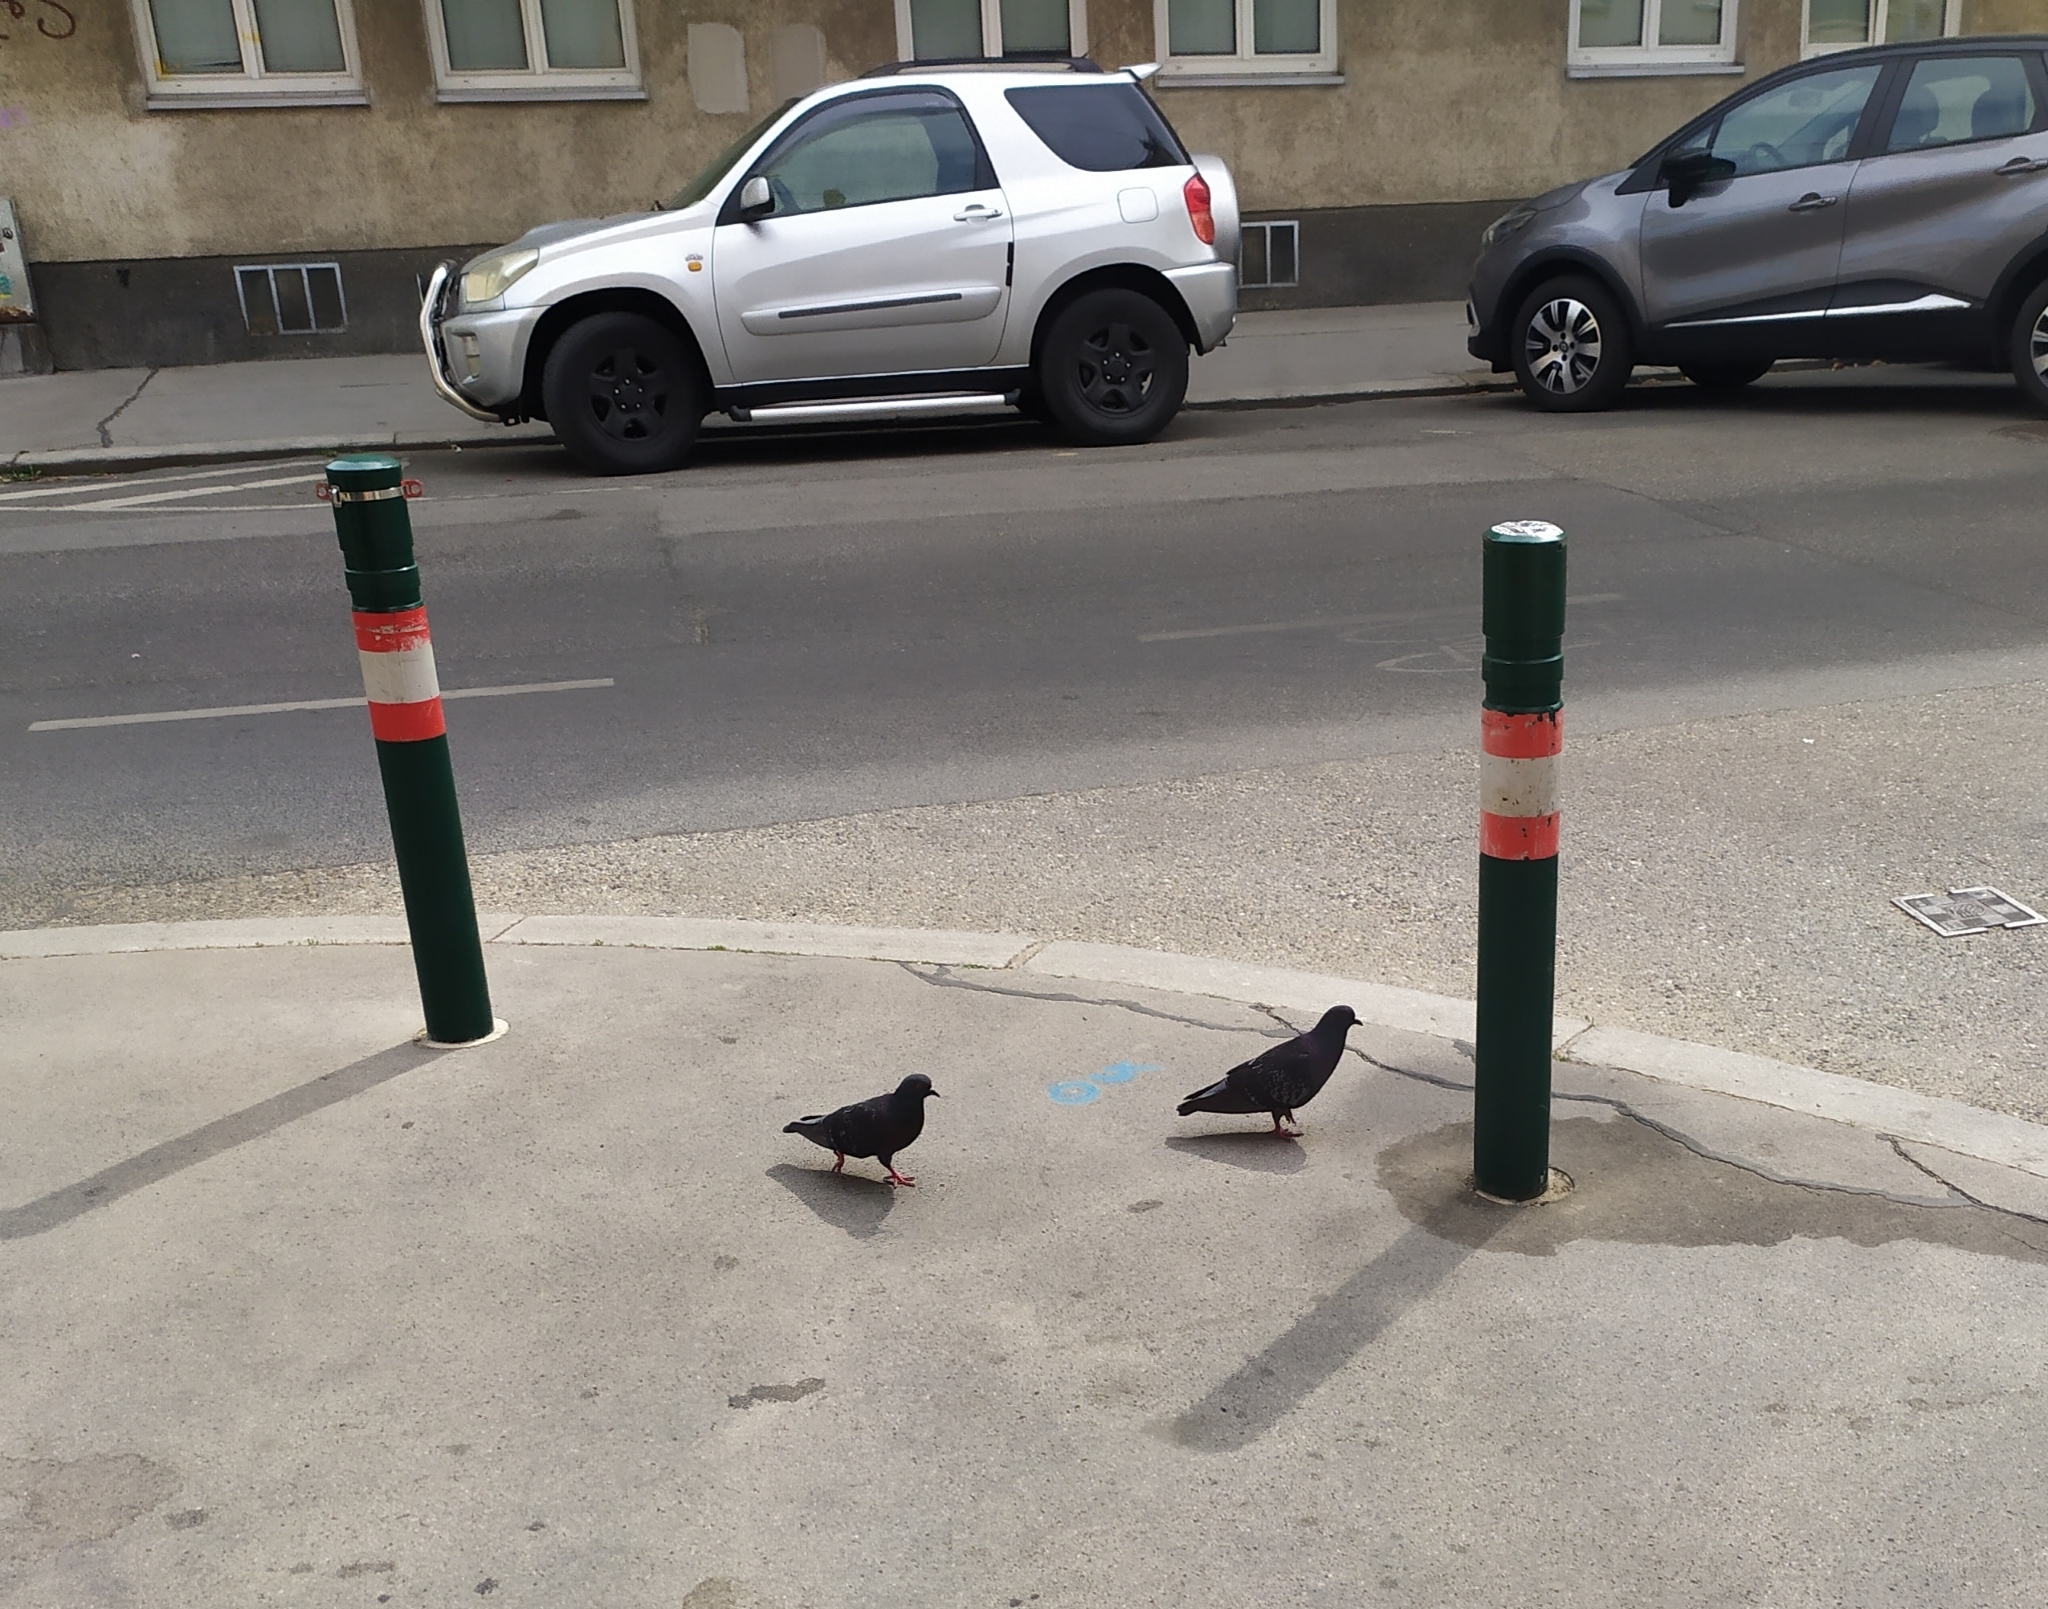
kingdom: Animalia
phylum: Chordata
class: Aves
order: Columbiformes
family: Columbidae
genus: Columba
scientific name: Columba livia
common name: Rock pigeon
